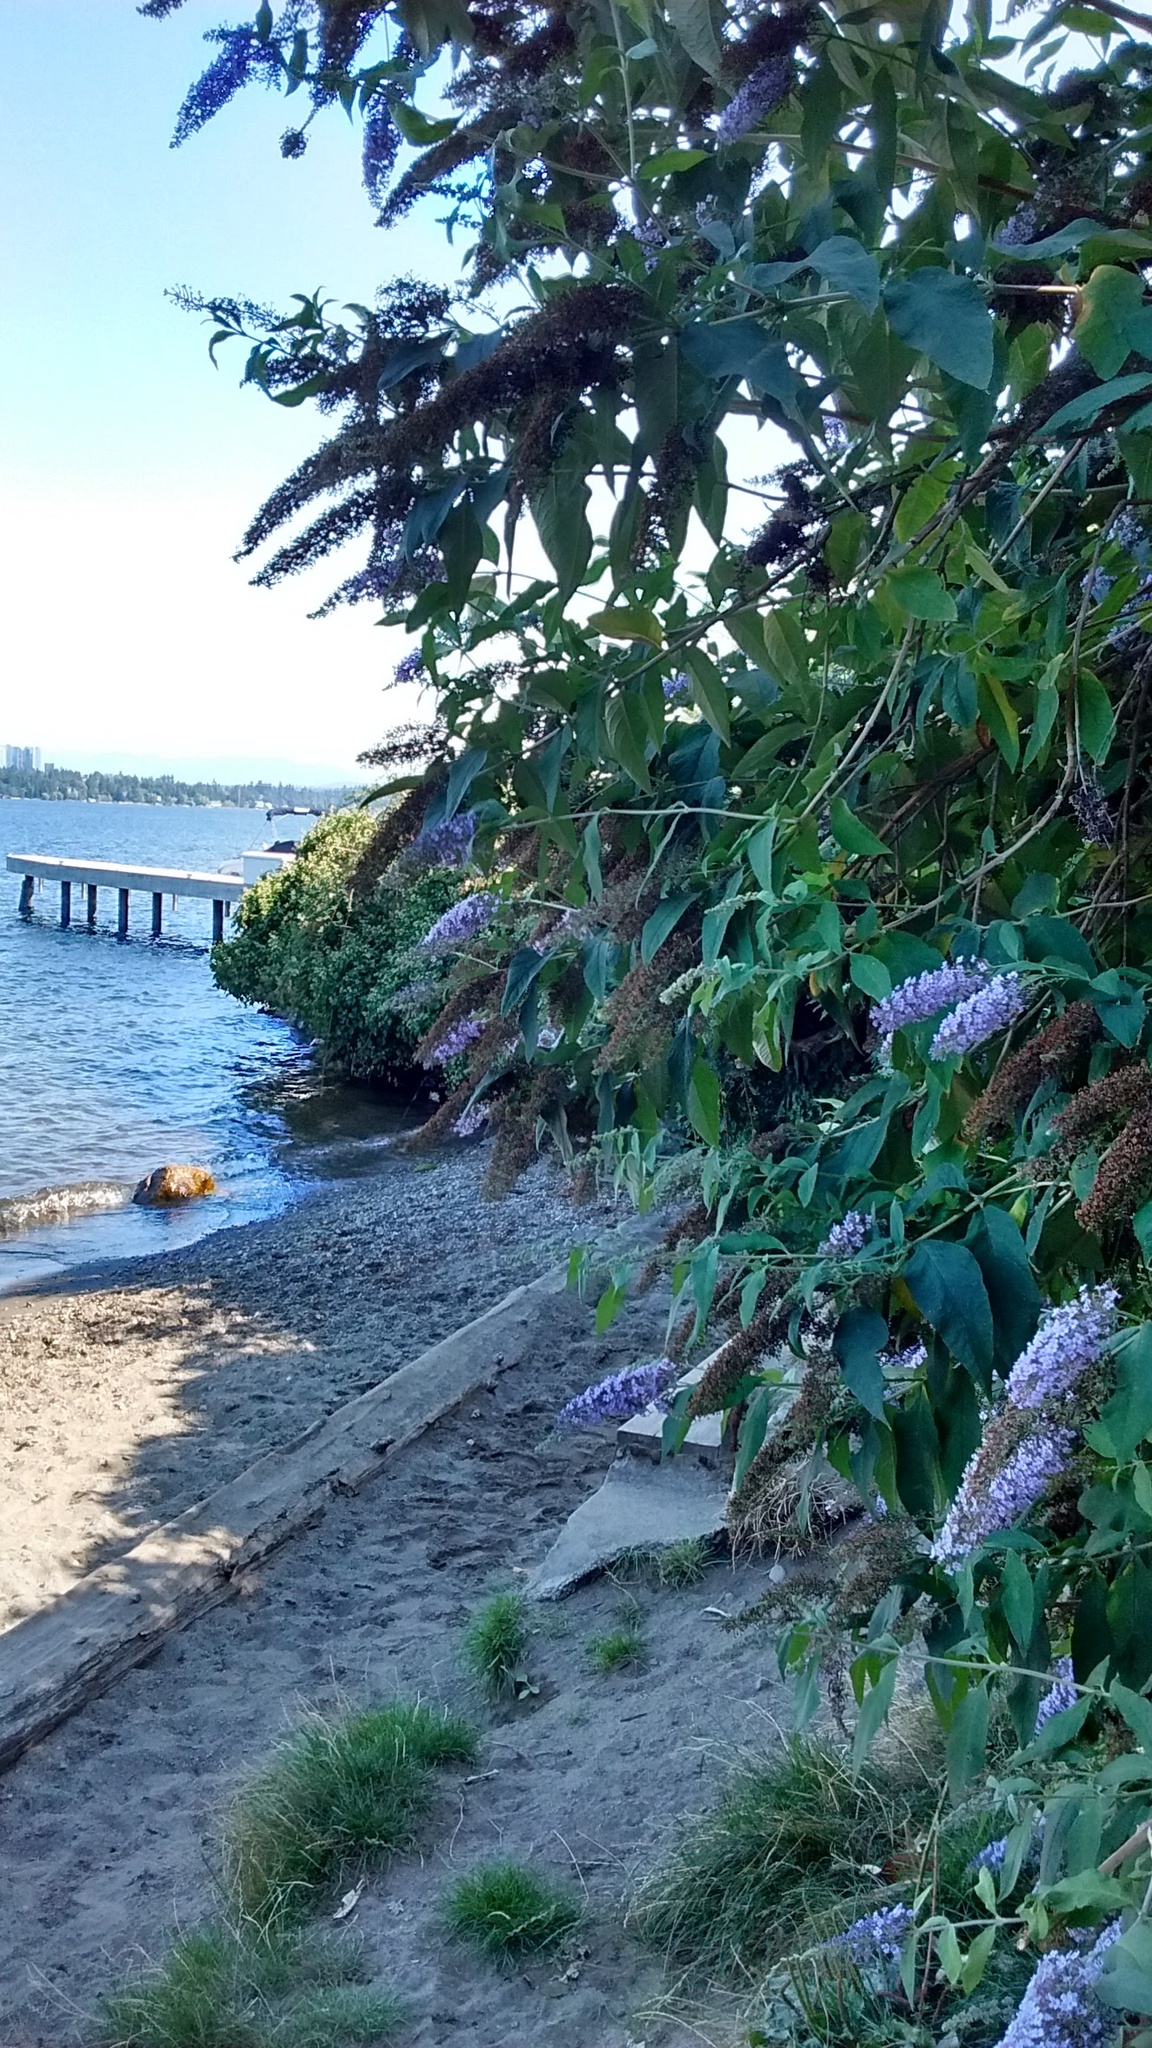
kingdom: Plantae
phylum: Tracheophyta
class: Magnoliopsida
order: Lamiales
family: Scrophulariaceae
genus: Buddleja
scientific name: Buddleja davidii
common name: Butterfly-bush
